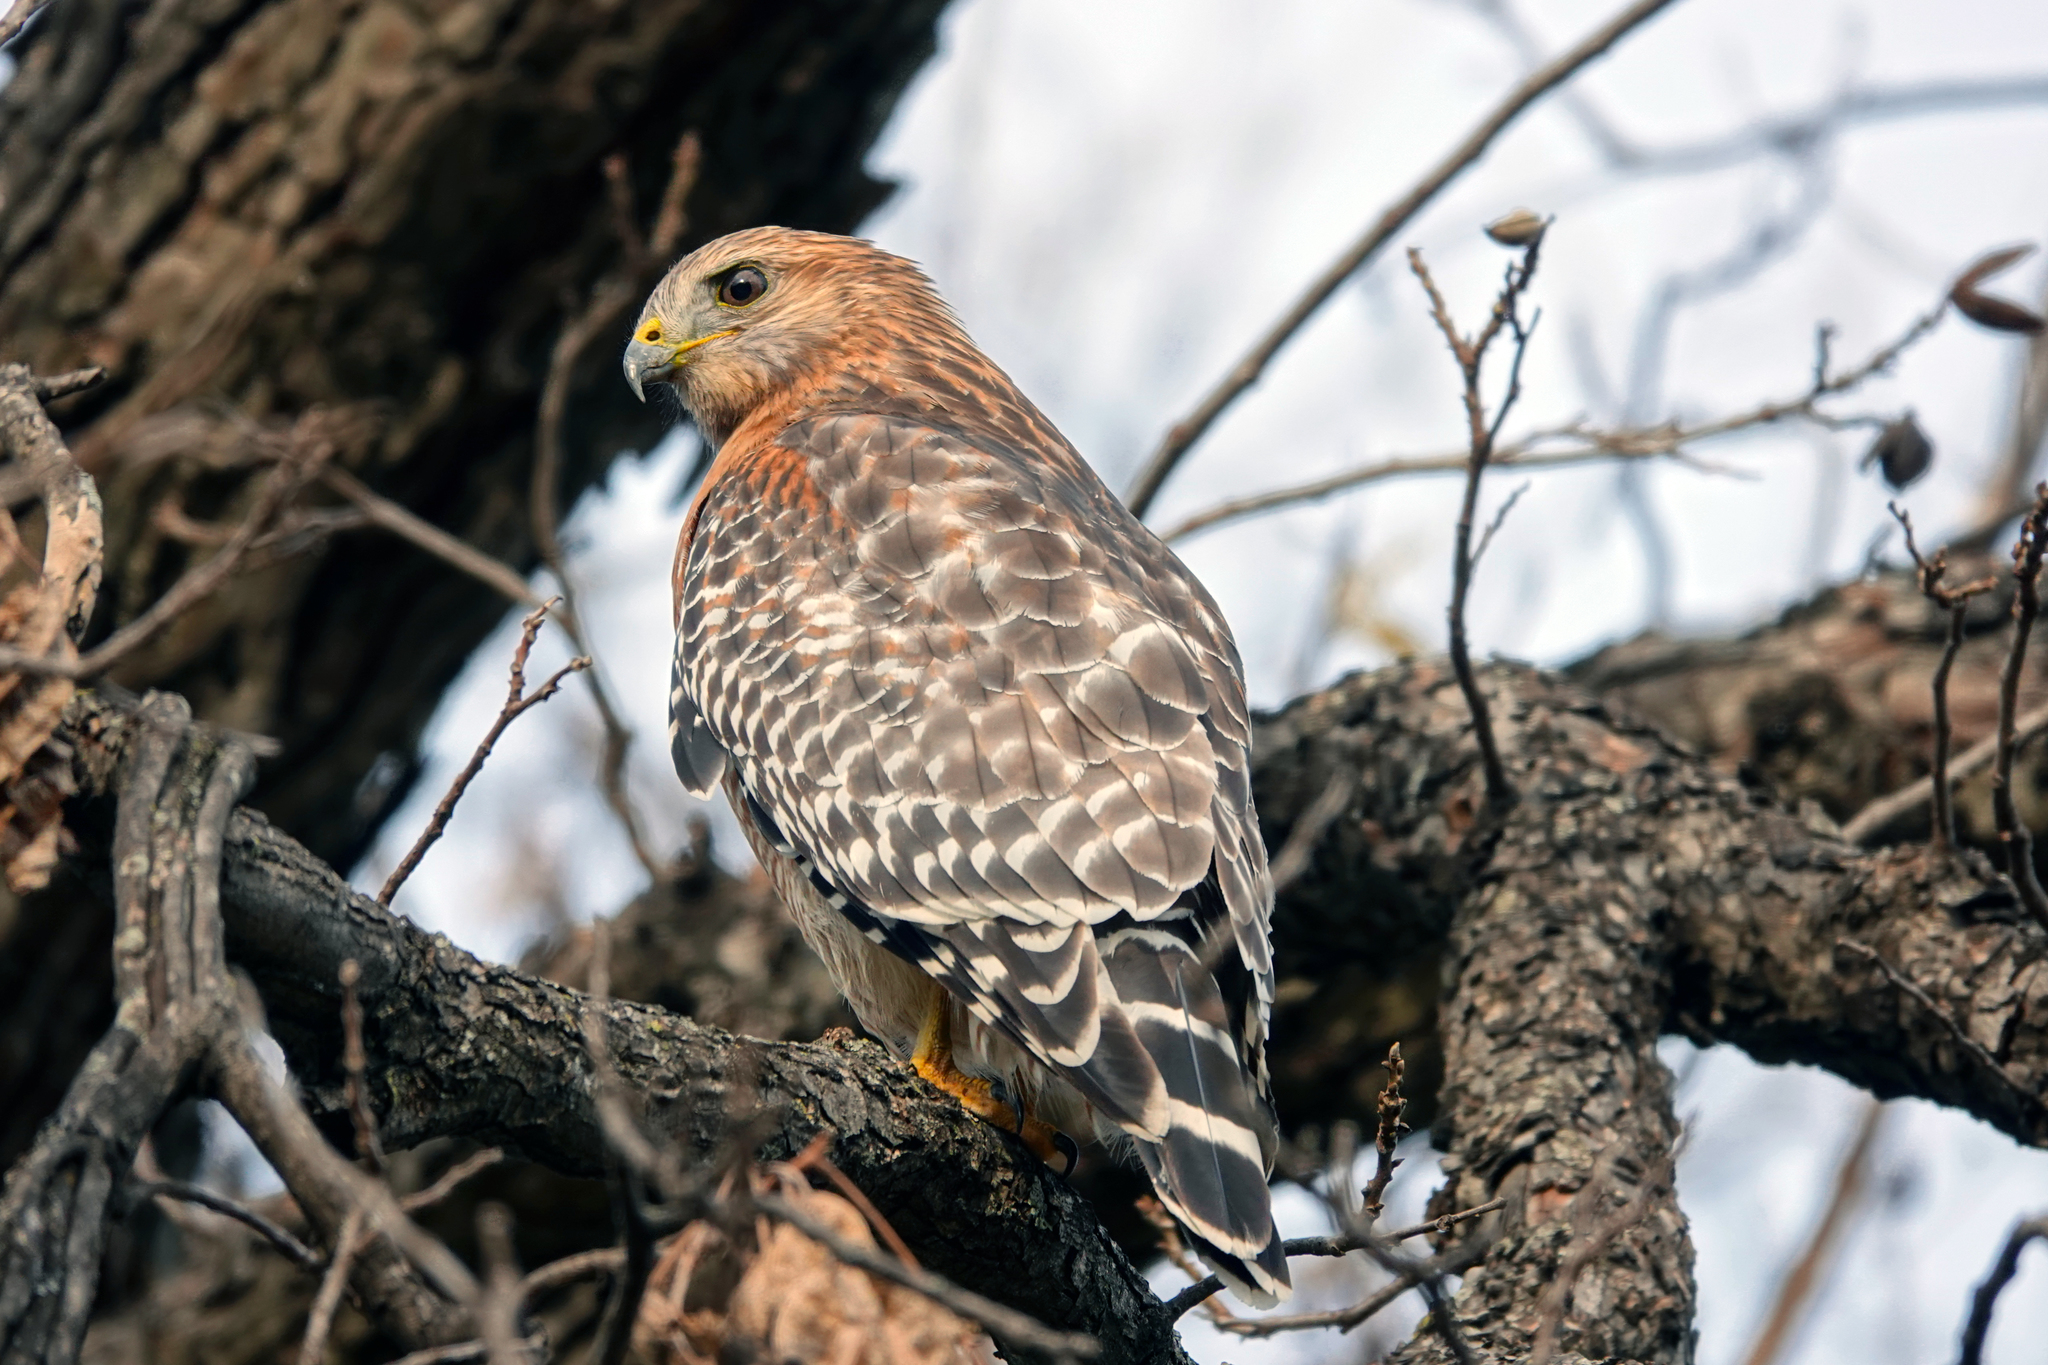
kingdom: Animalia
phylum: Chordata
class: Aves
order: Accipitriformes
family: Accipitridae
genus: Buteo
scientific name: Buteo lineatus
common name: Red-shouldered hawk
